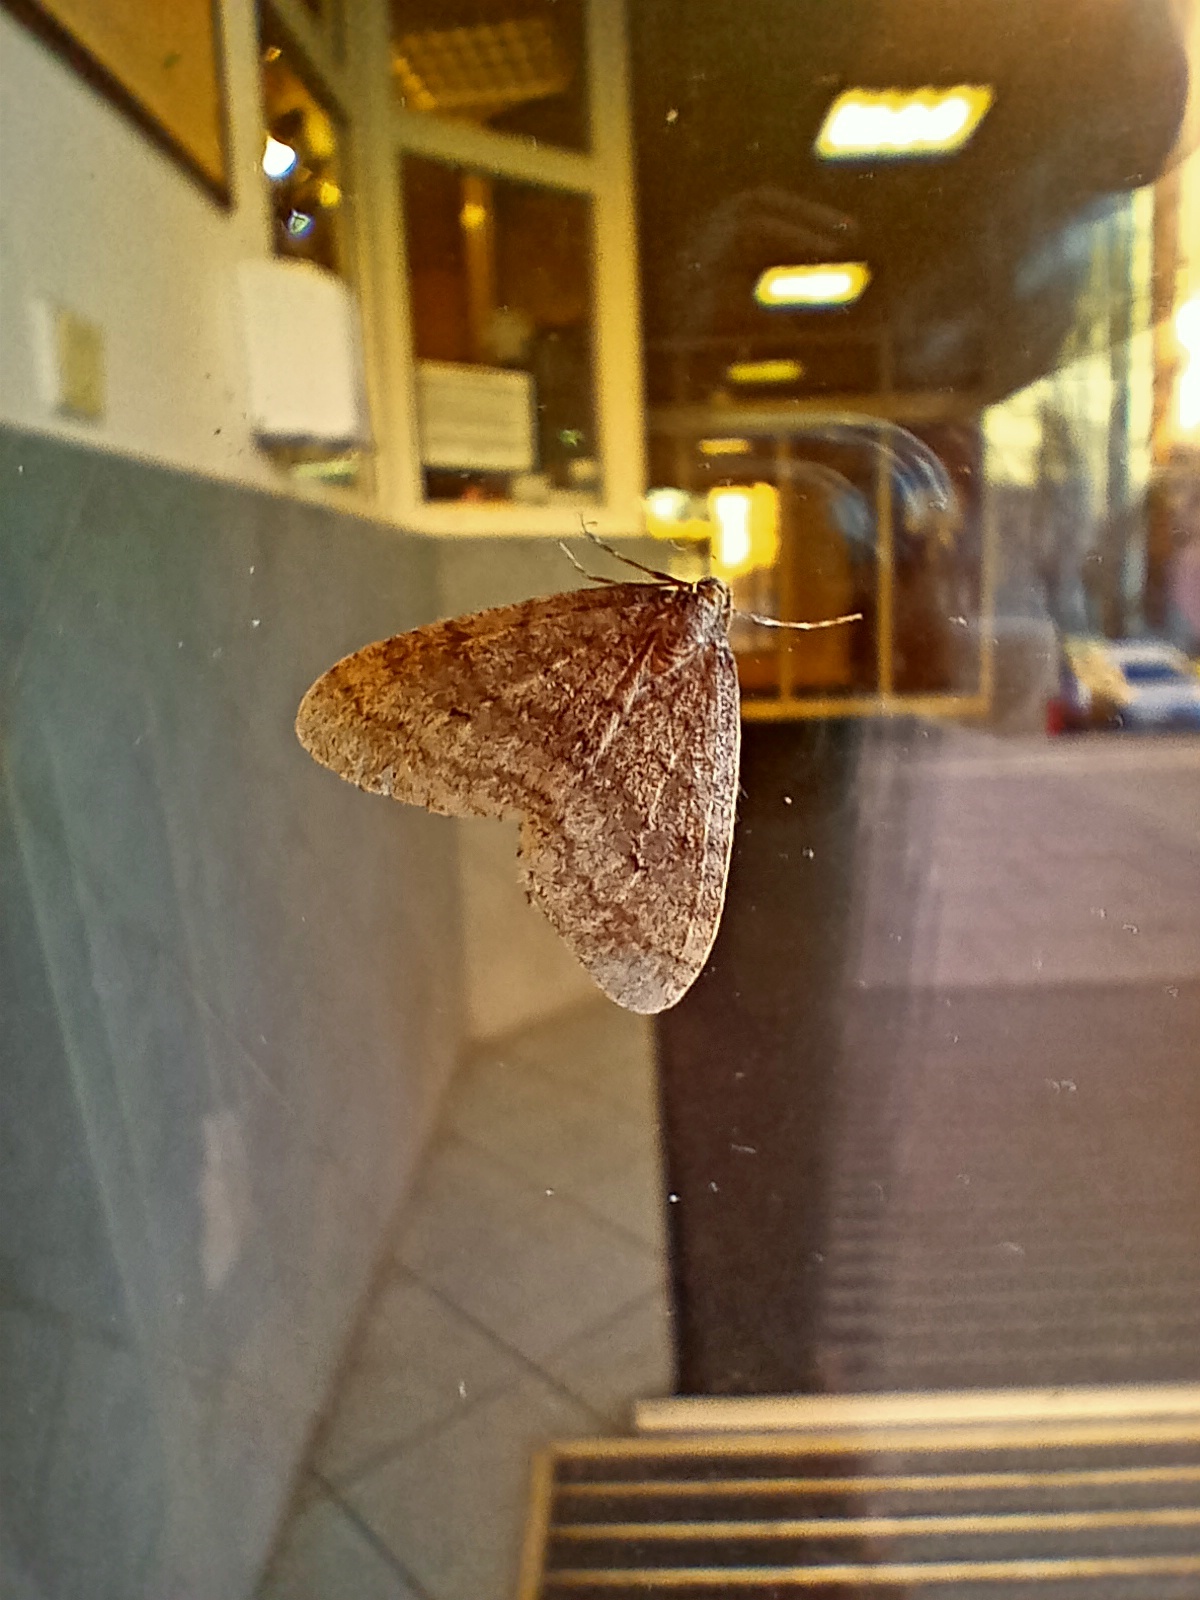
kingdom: Animalia
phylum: Arthropoda
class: Insecta
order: Lepidoptera
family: Geometridae
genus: Operophtera
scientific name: Operophtera brumata
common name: Winter moth
